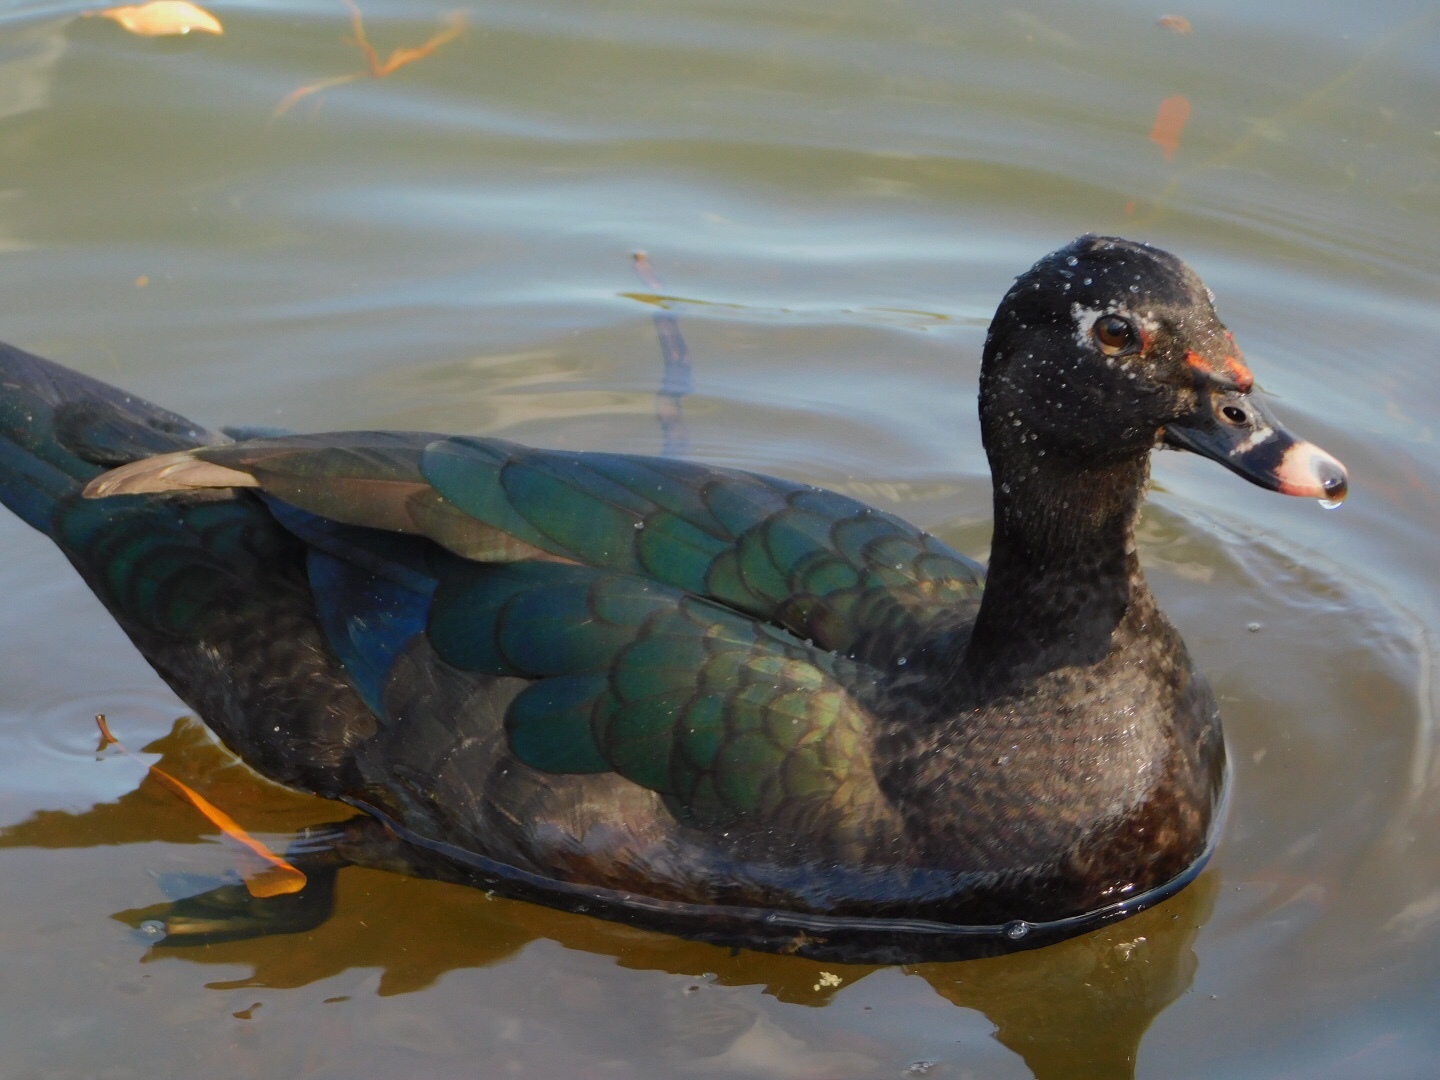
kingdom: Animalia
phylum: Chordata
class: Aves
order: Anseriformes
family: Anatidae
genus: Cairina
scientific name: Cairina moschata
